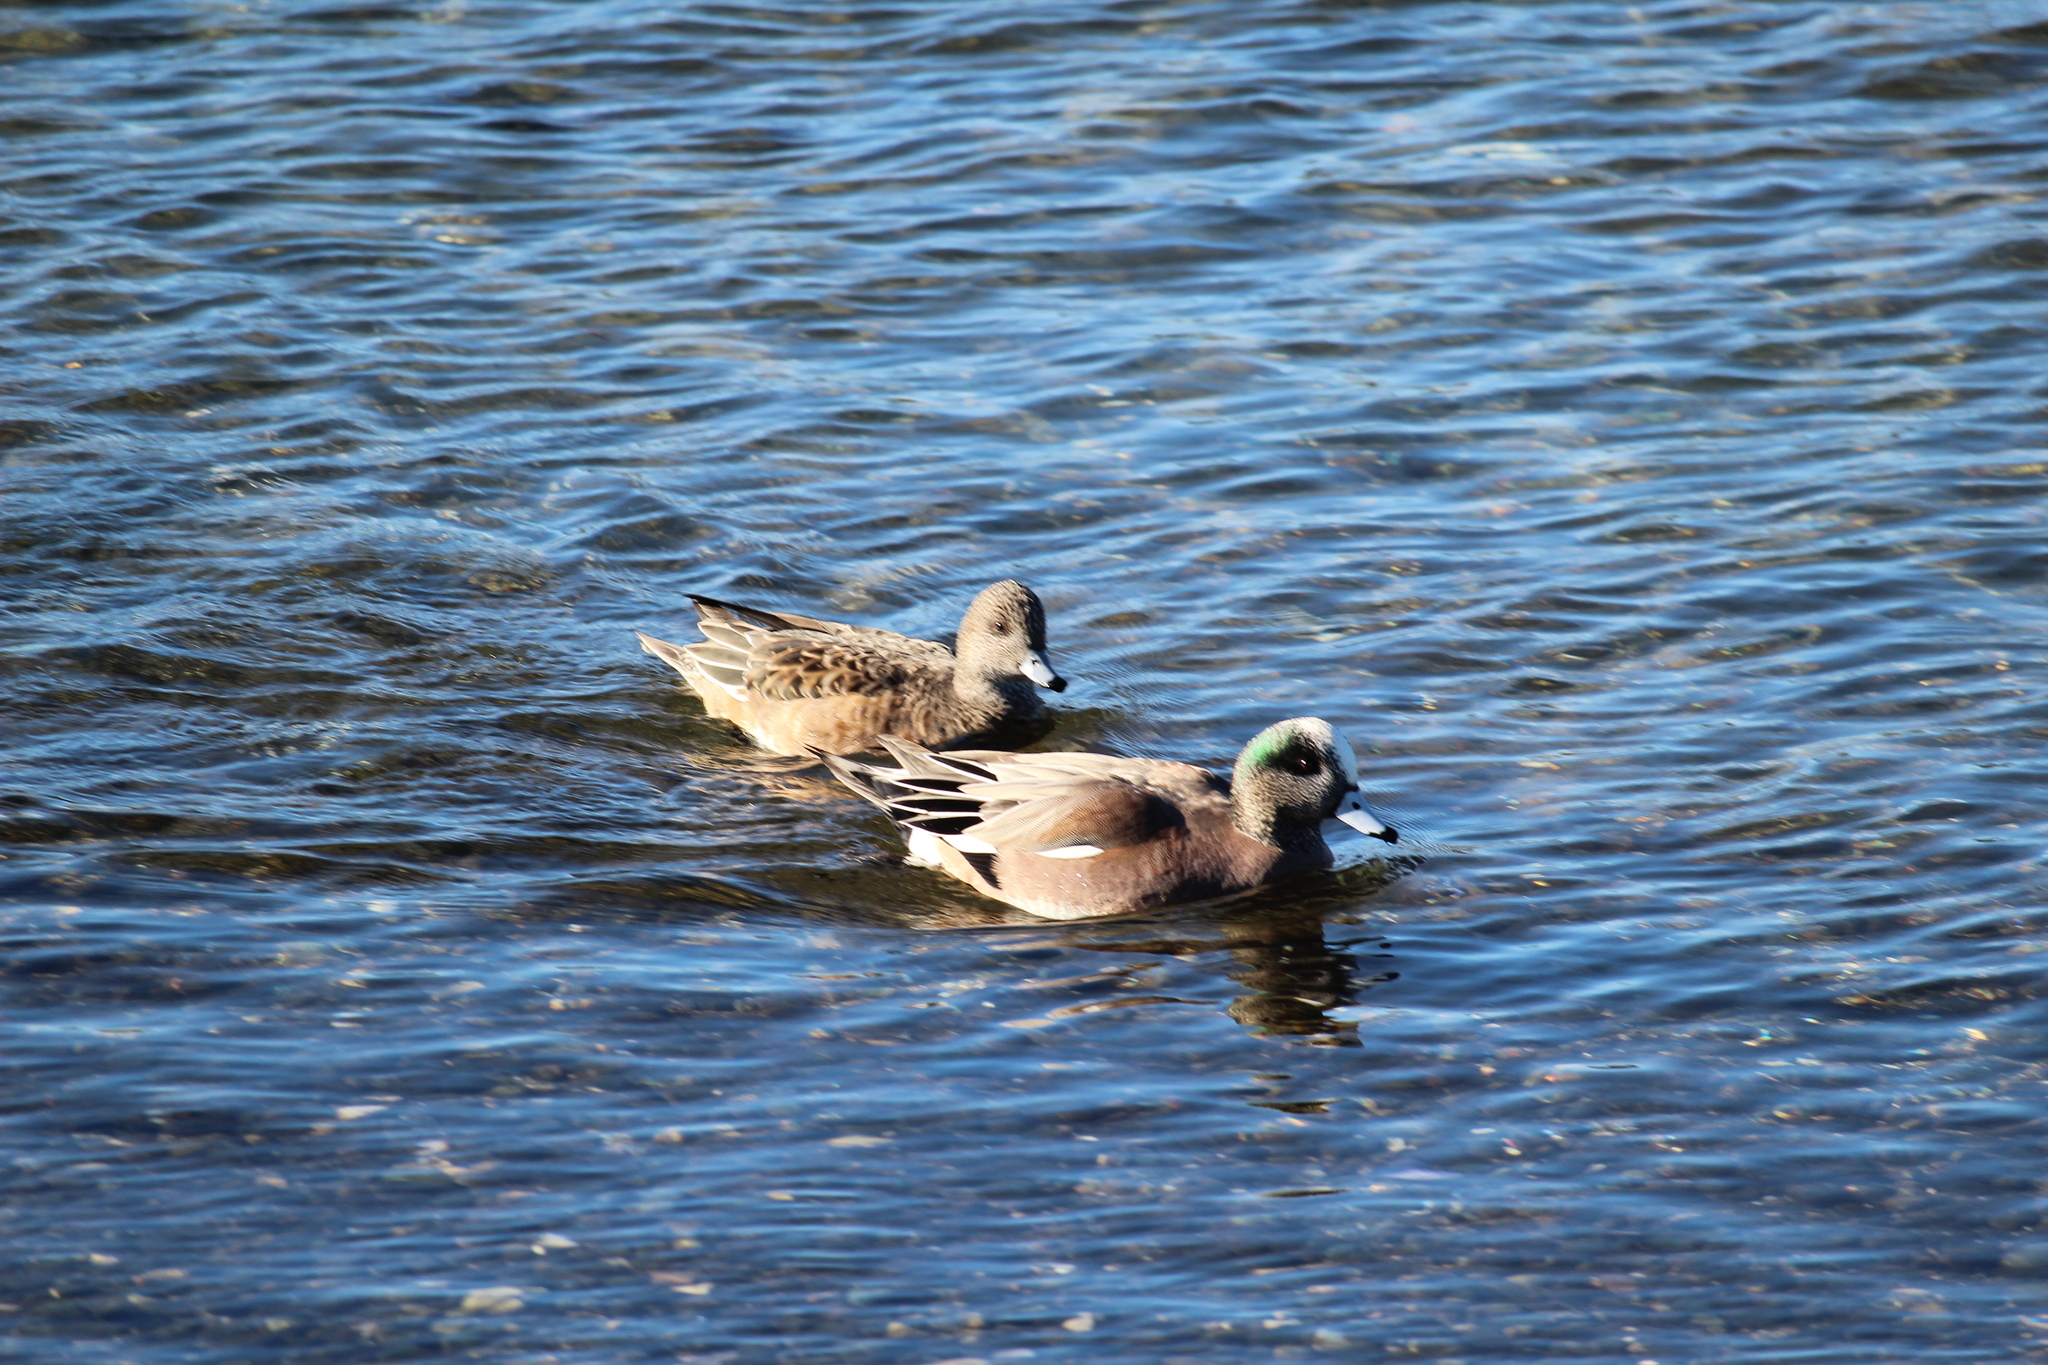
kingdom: Animalia
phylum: Chordata
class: Aves
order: Anseriformes
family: Anatidae
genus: Mareca
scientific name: Mareca americana
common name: American wigeon
